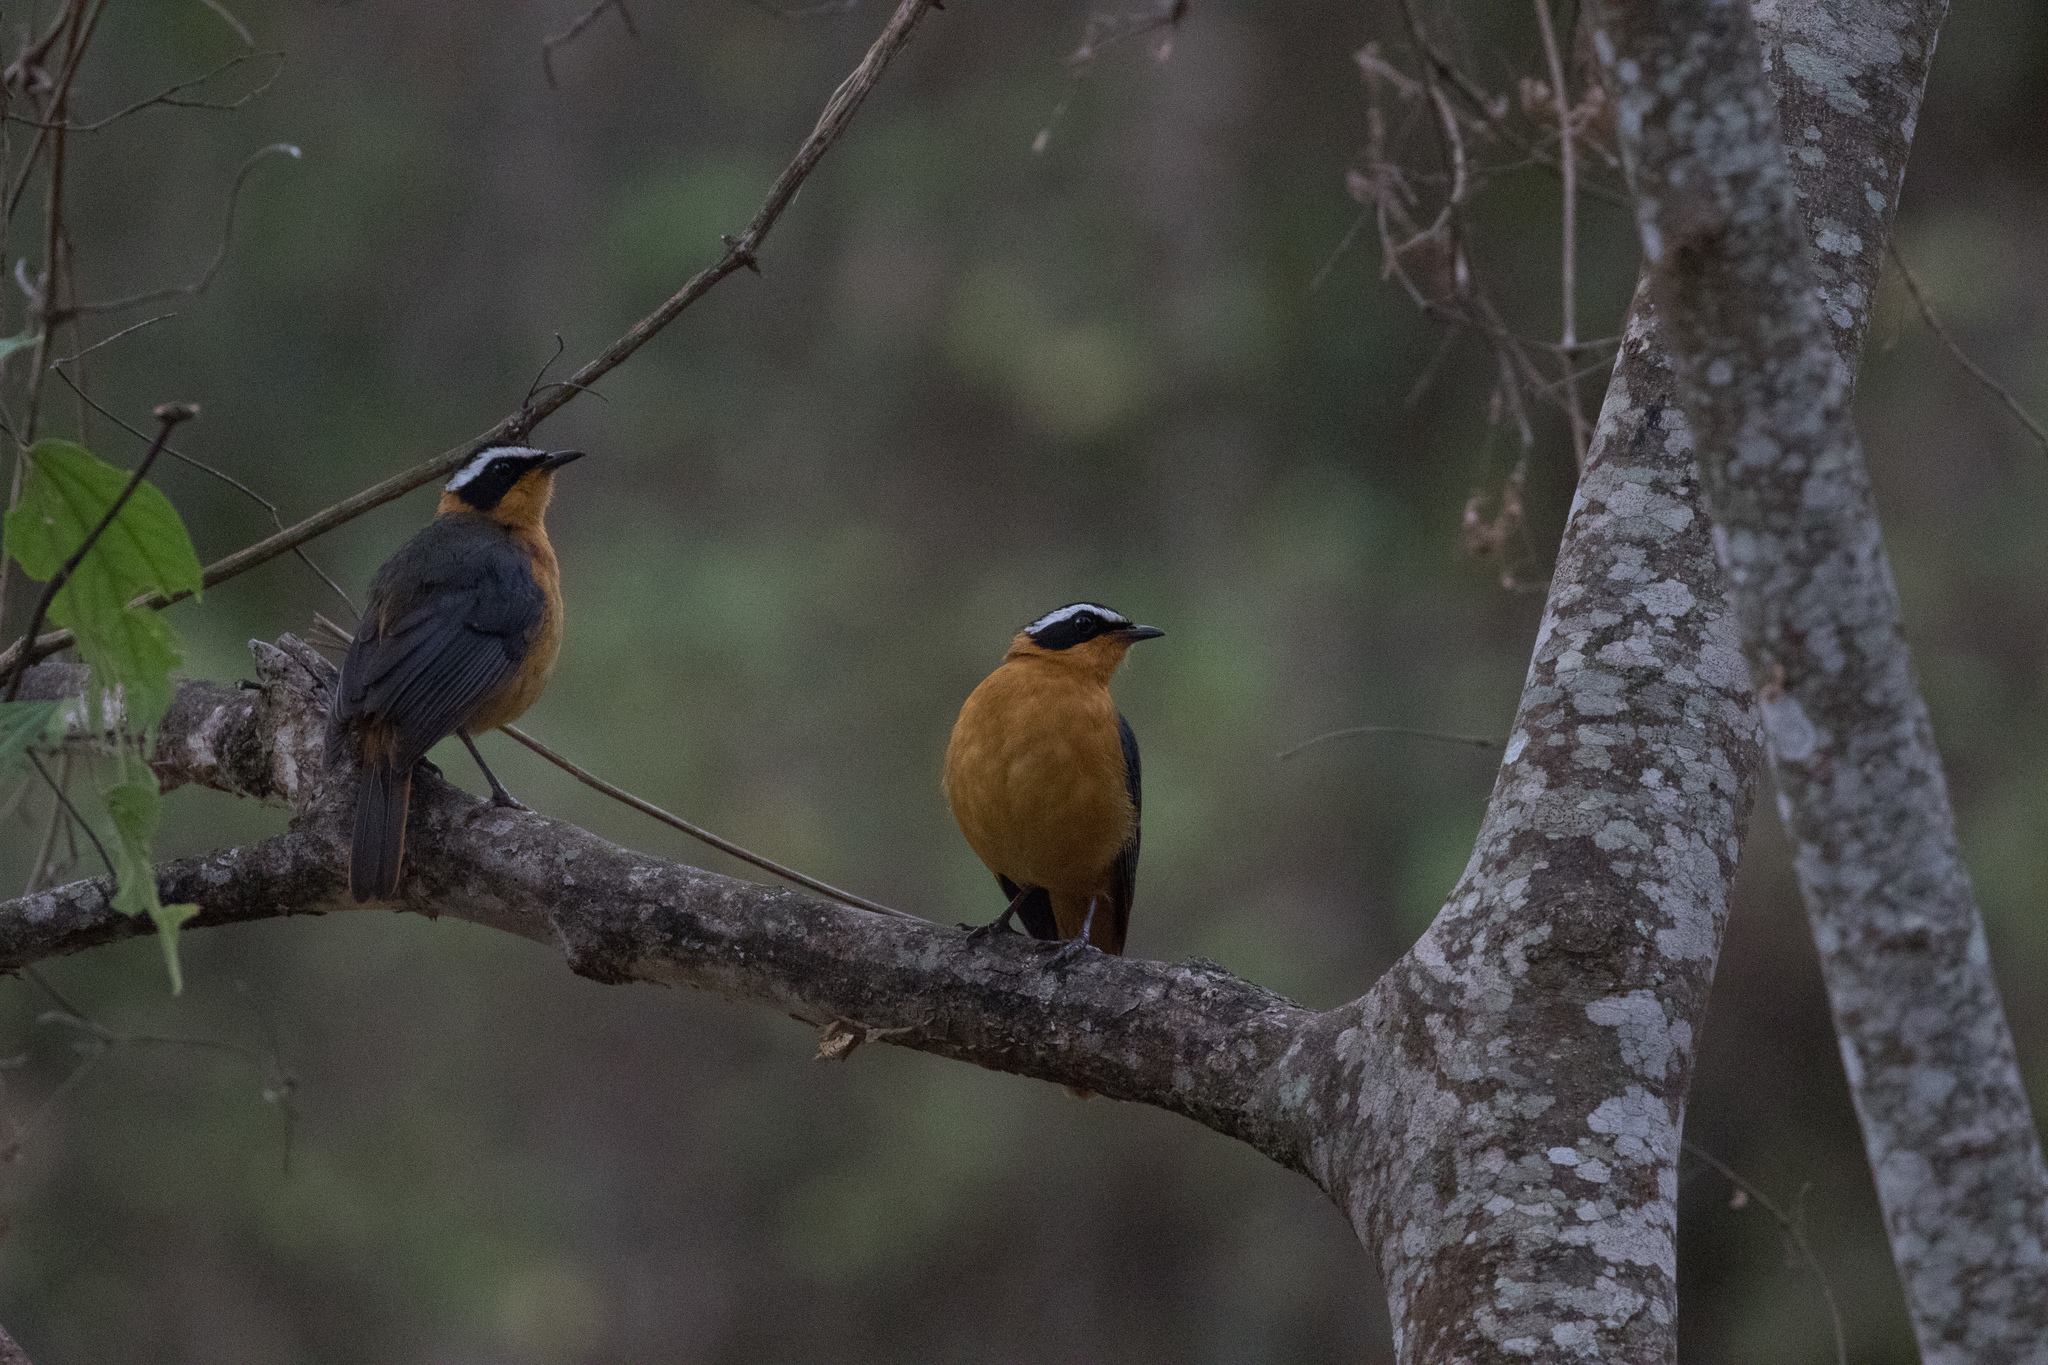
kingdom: Animalia
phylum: Chordata
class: Aves
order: Passeriformes
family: Muscicapidae
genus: Cossypha
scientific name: Cossypha heuglini
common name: White-browed robin-chat
